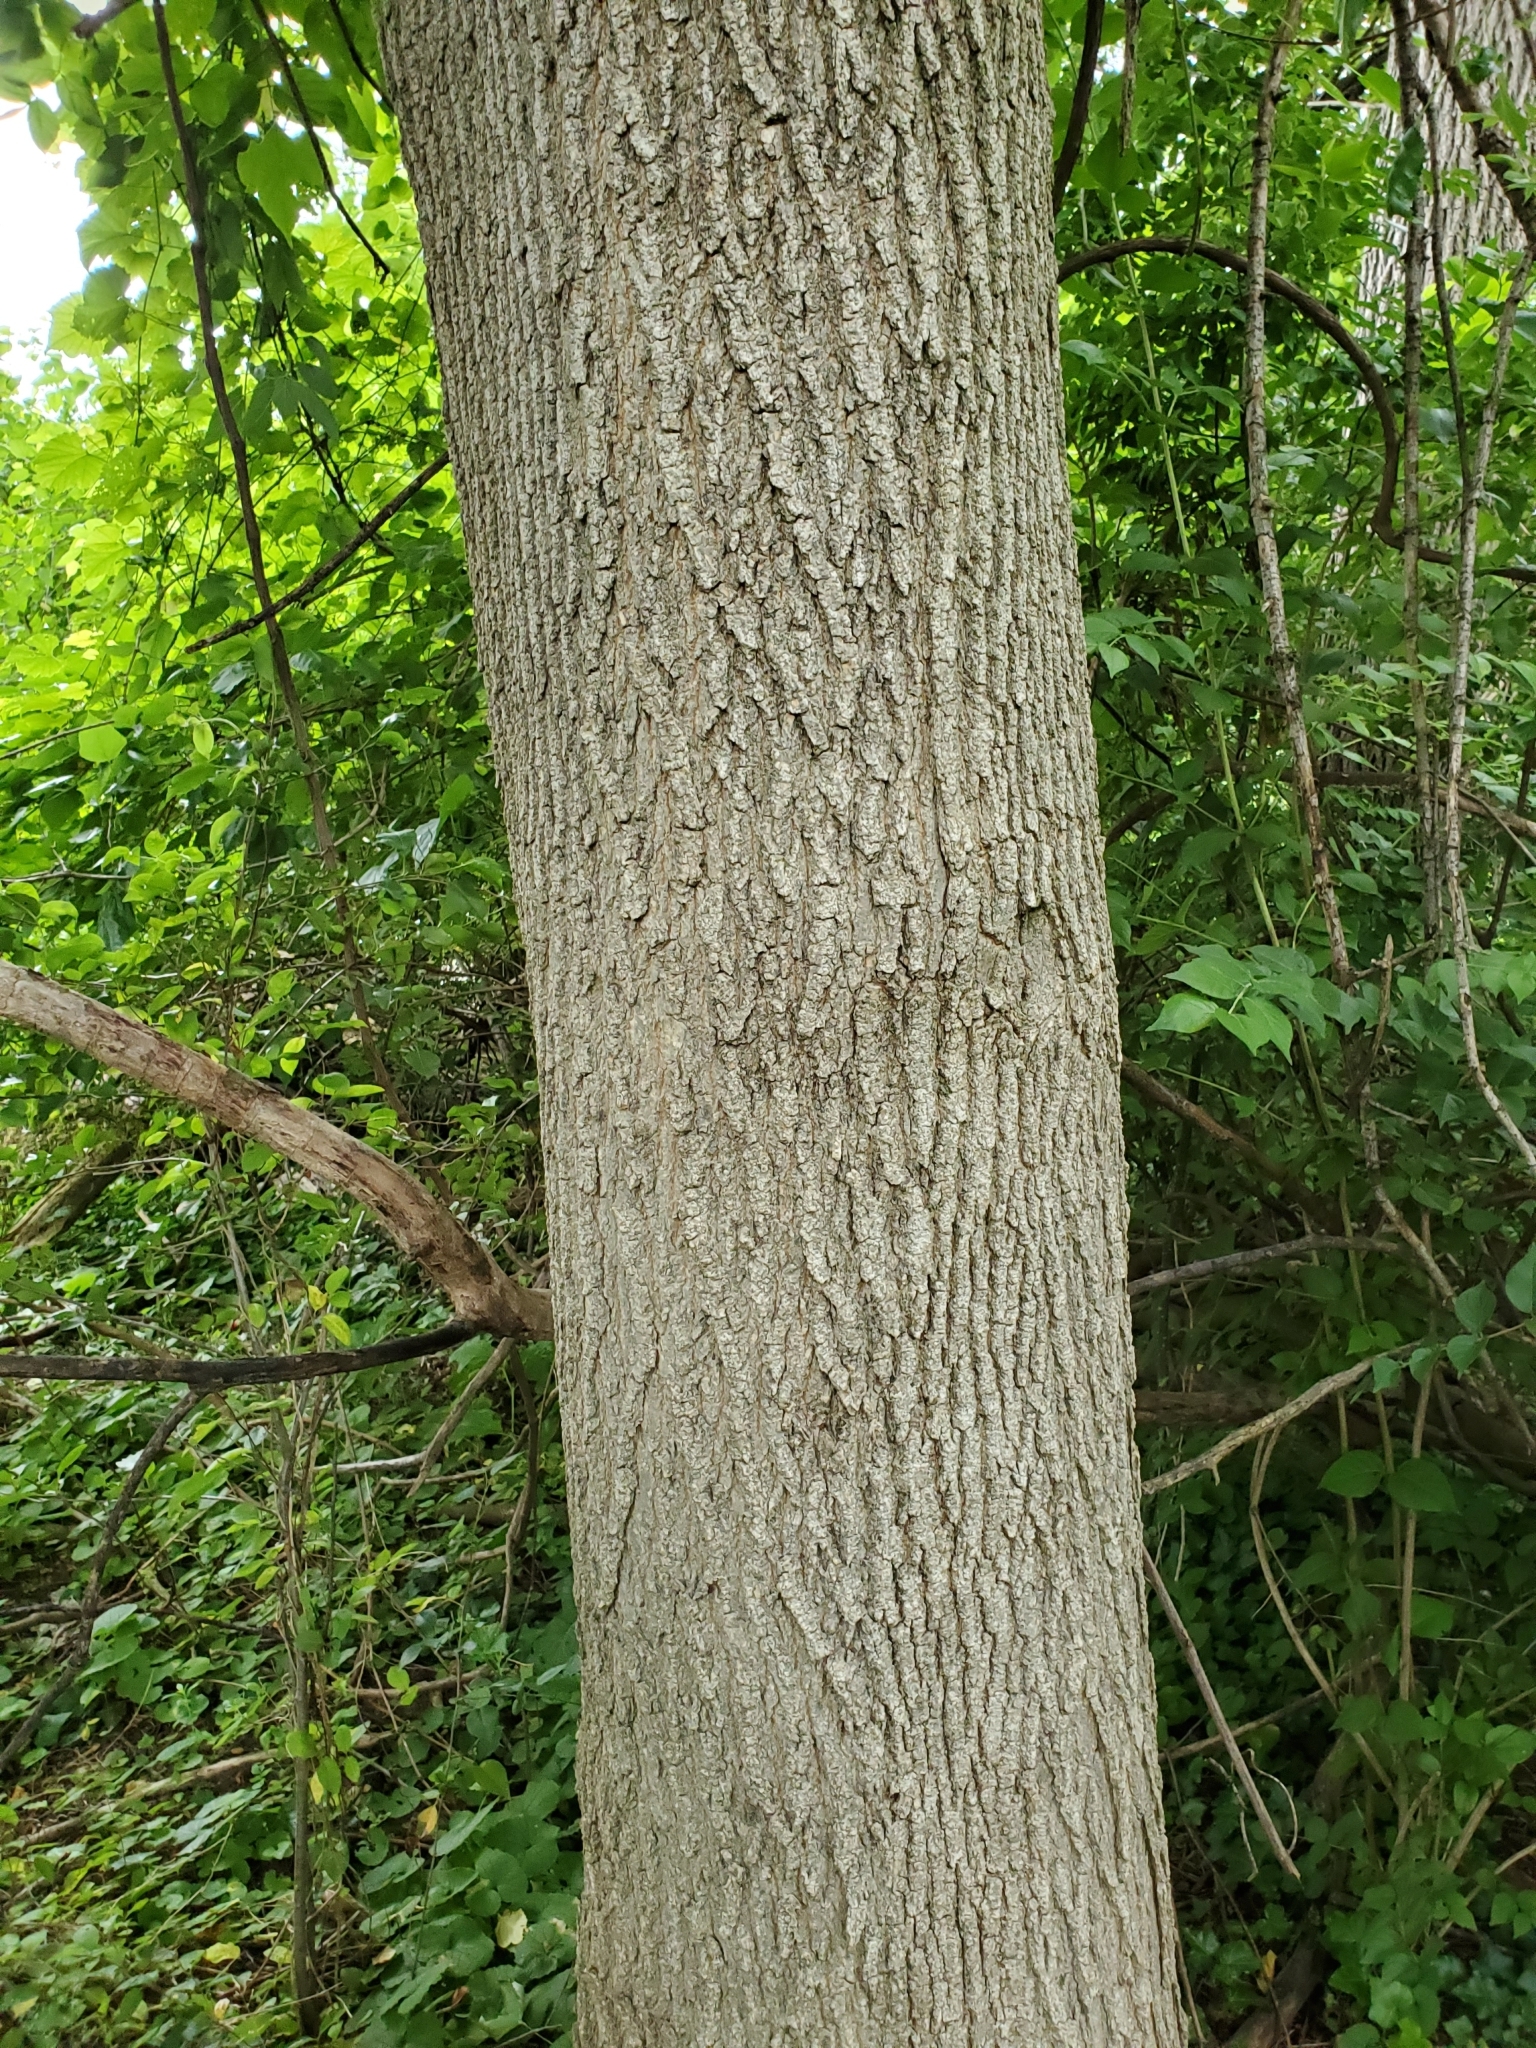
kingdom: Plantae
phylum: Tracheophyta
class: Magnoliopsida
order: Sapindales
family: Sapindaceae
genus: Acer
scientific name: Acer negundo
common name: Ashleaf maple
